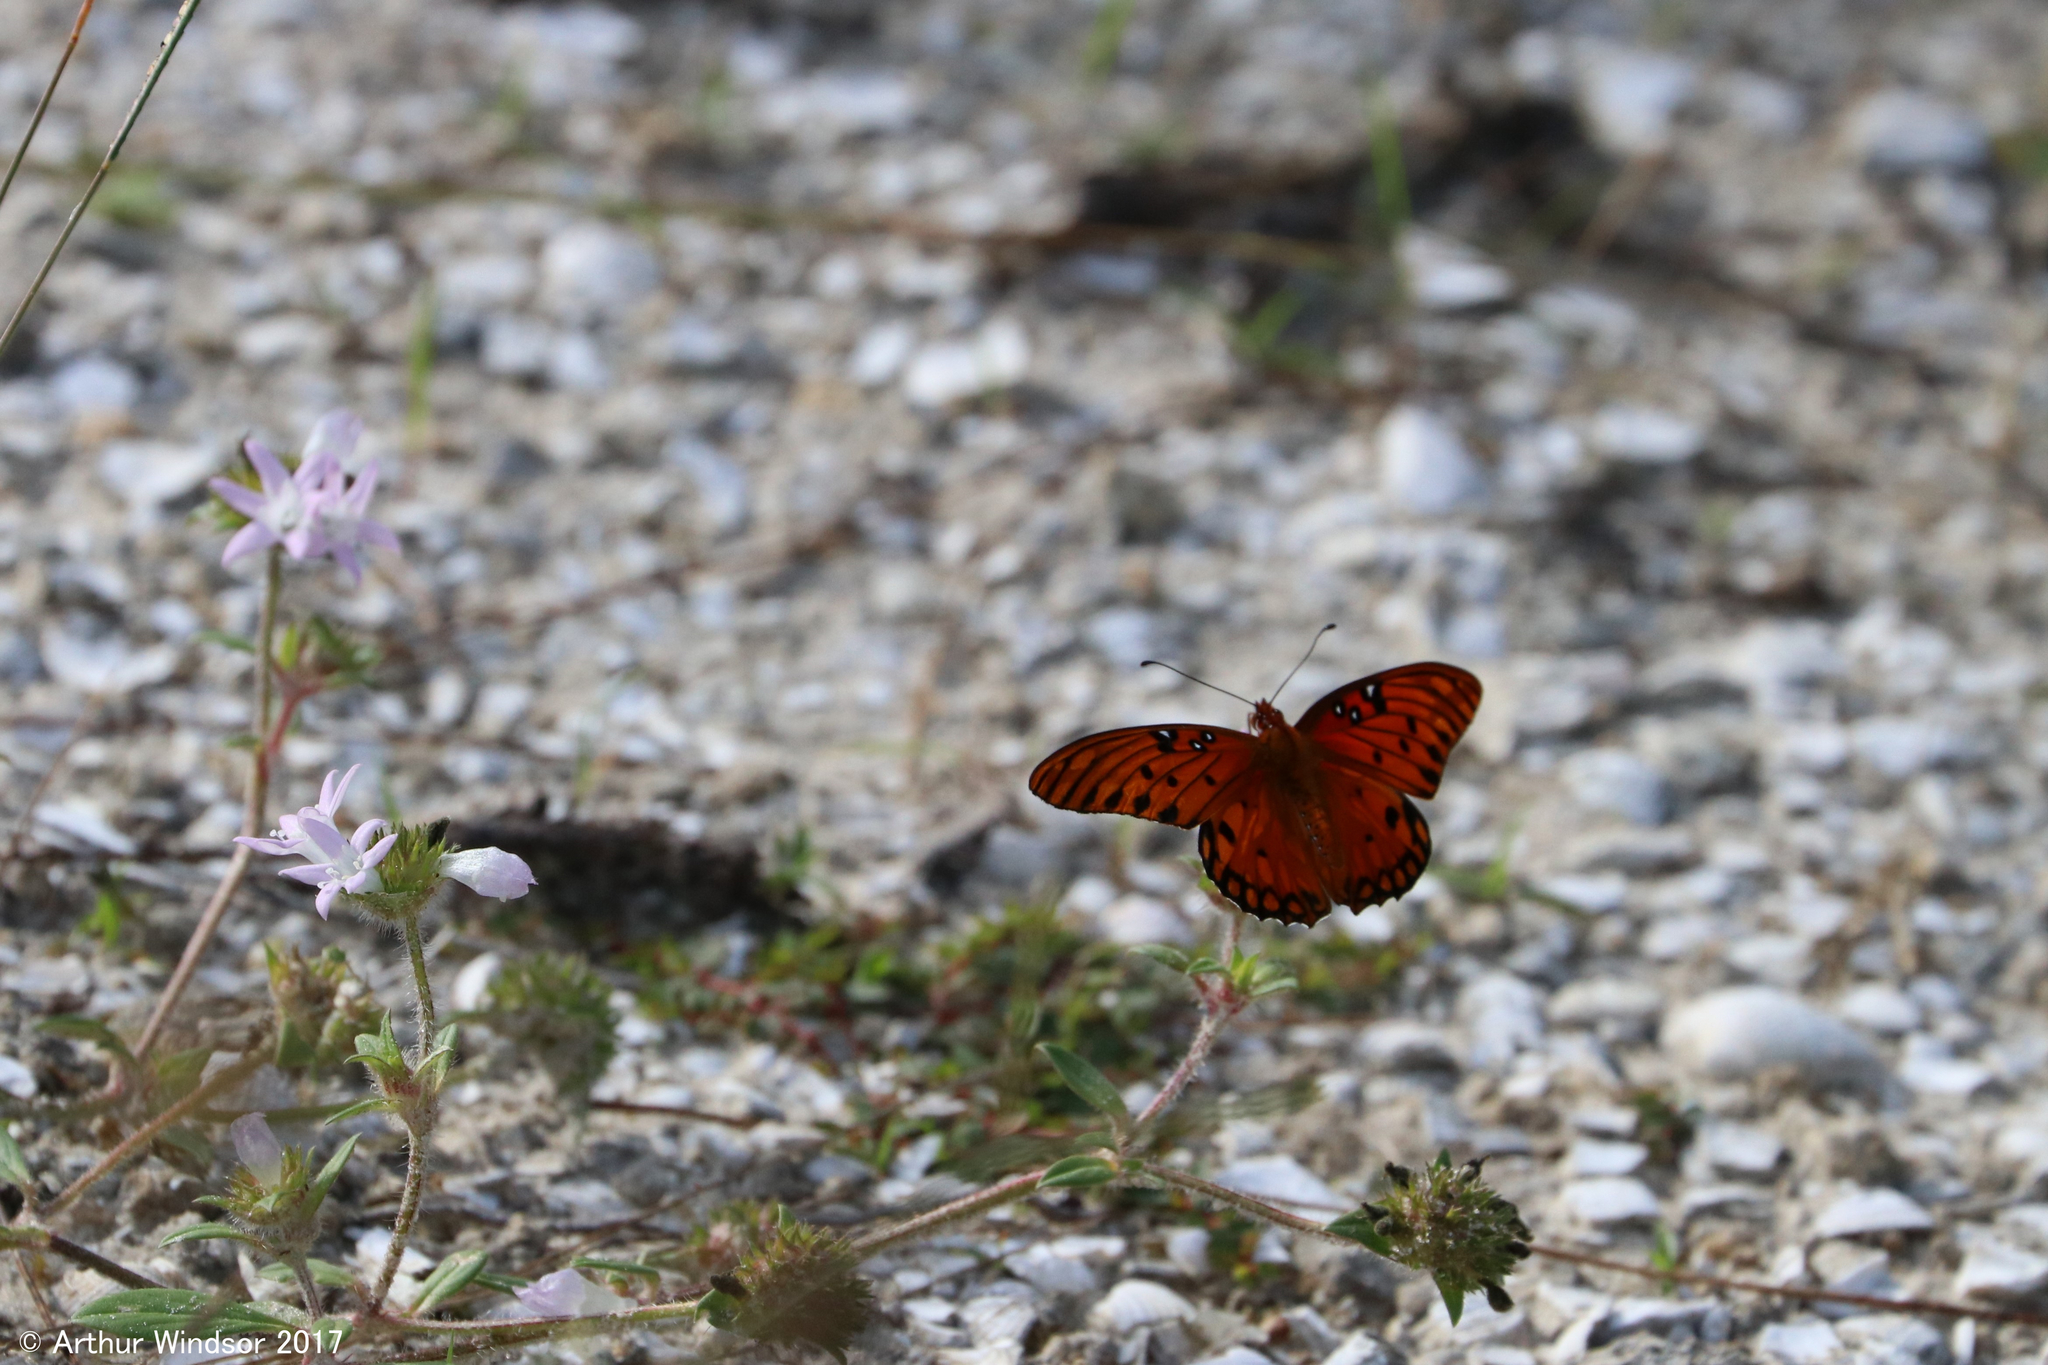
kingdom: Animalia
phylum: Arthropoda
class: Insecta
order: Lepidoptera
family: Nymphalidae
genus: Dione
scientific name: Dione vanillae
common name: Gulf fritillary
